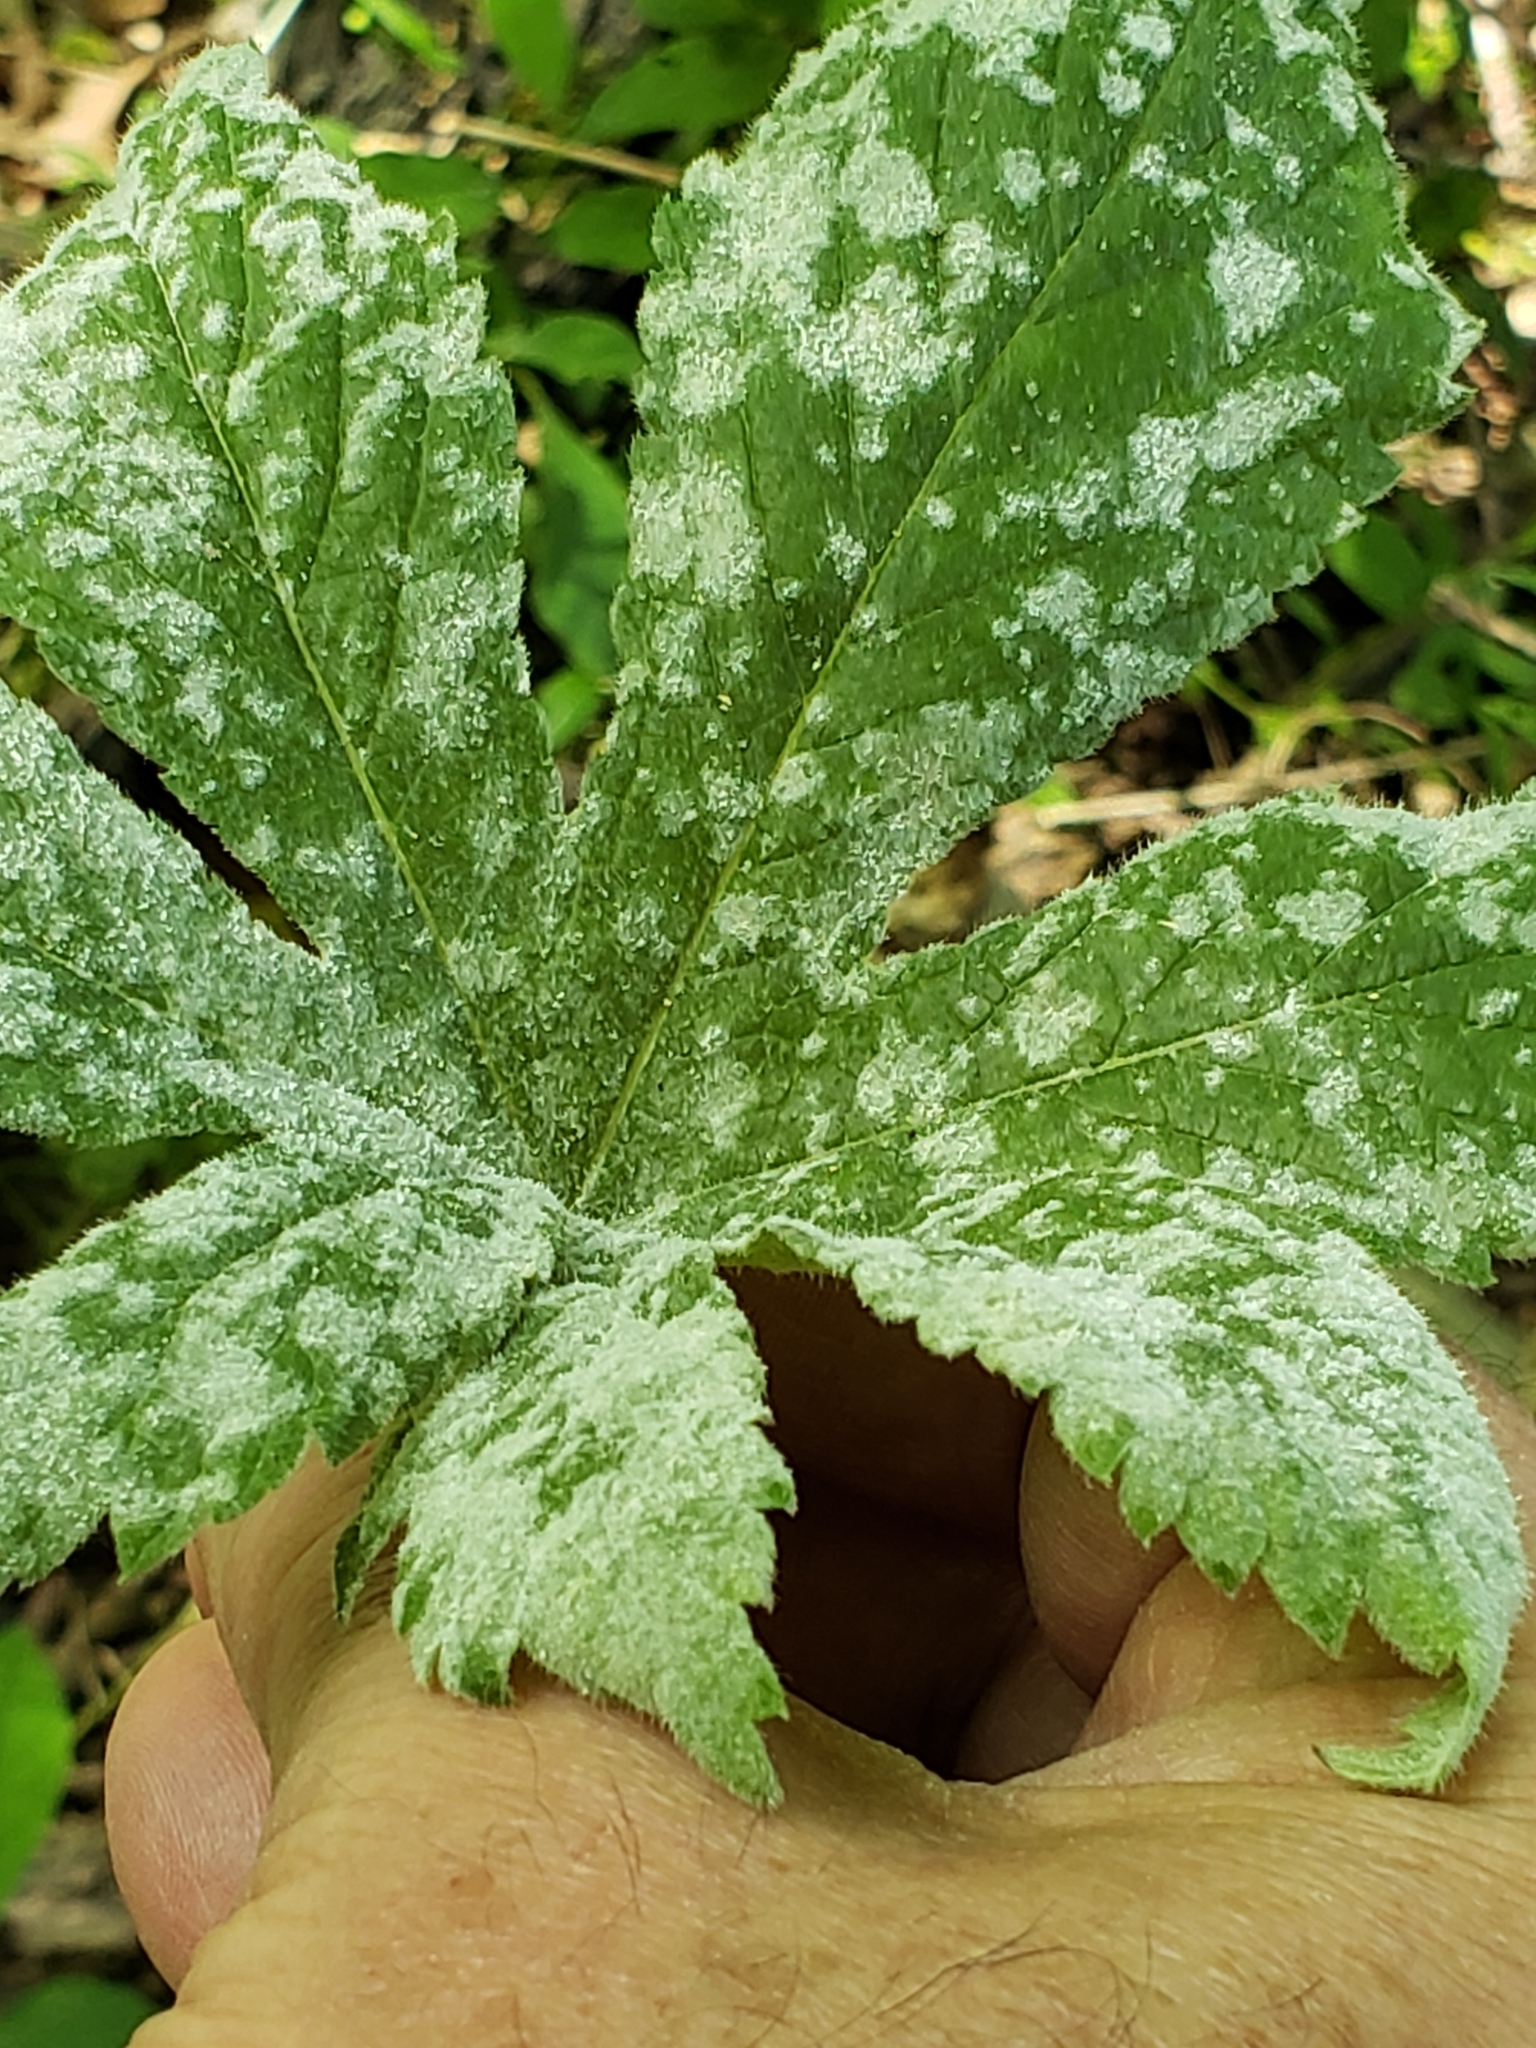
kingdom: Plantae
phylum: Tracheophyta
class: Magnoliopsida
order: Rosales
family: Cannabaceae
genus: Humulus
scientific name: Humulus scandens
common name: Japanese hop
